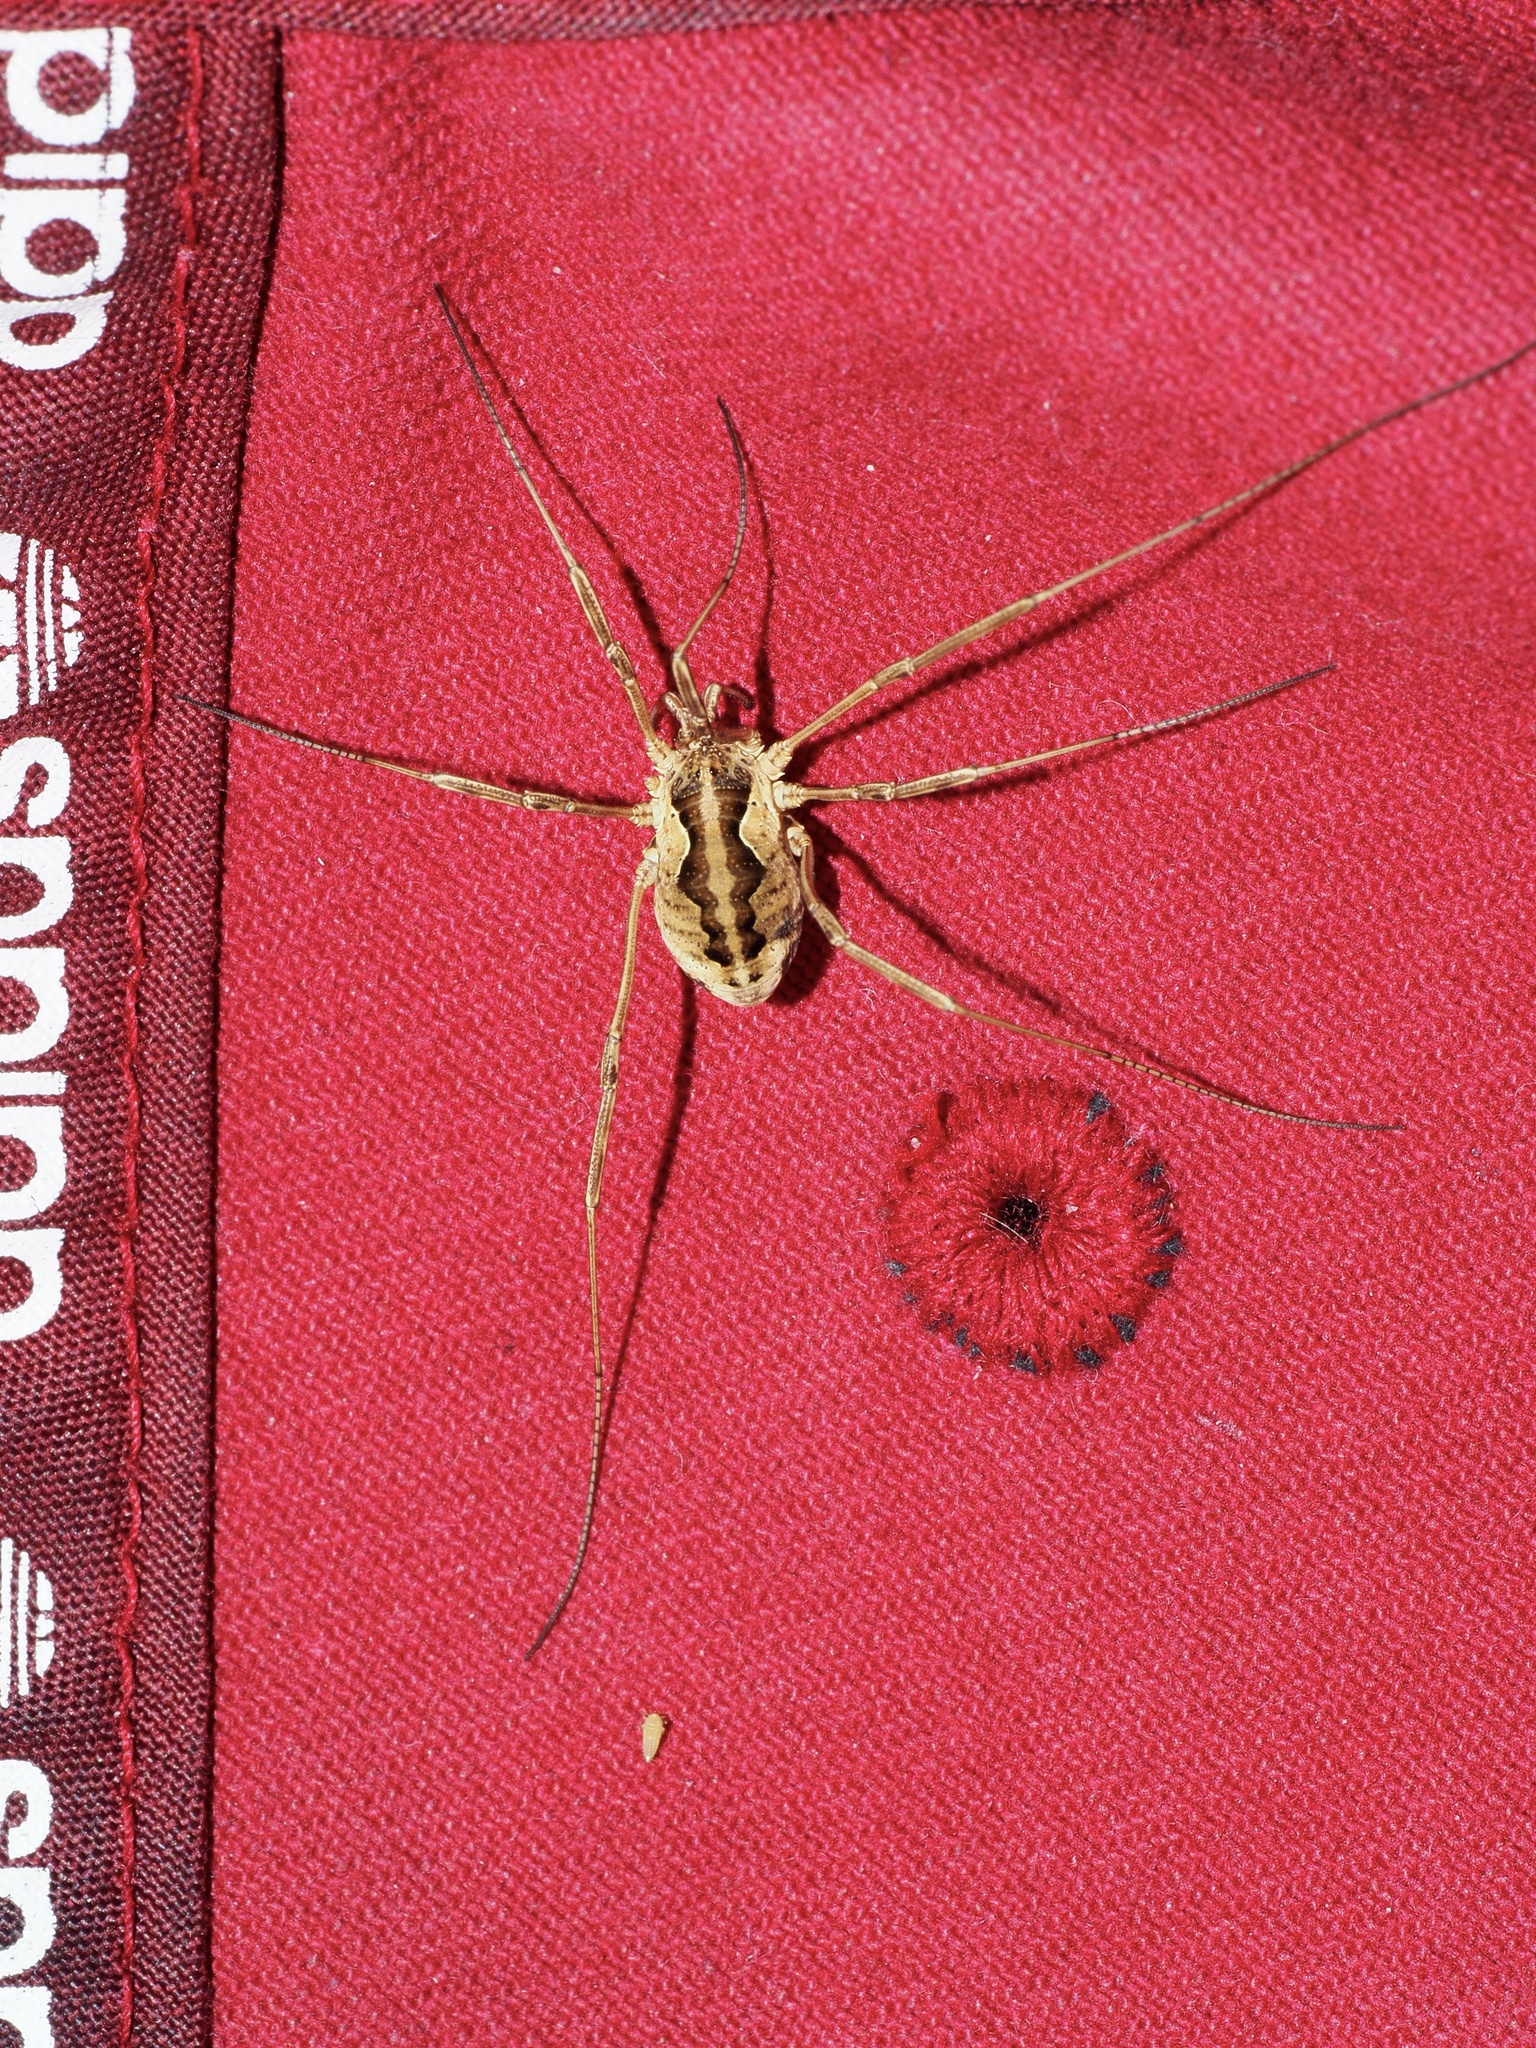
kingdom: Animalia
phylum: Arthropoda
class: Arachnida
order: Opiliones
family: Phalangiidae
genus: Mitopus
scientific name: Mitopus morio
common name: Saddleback harvestman
